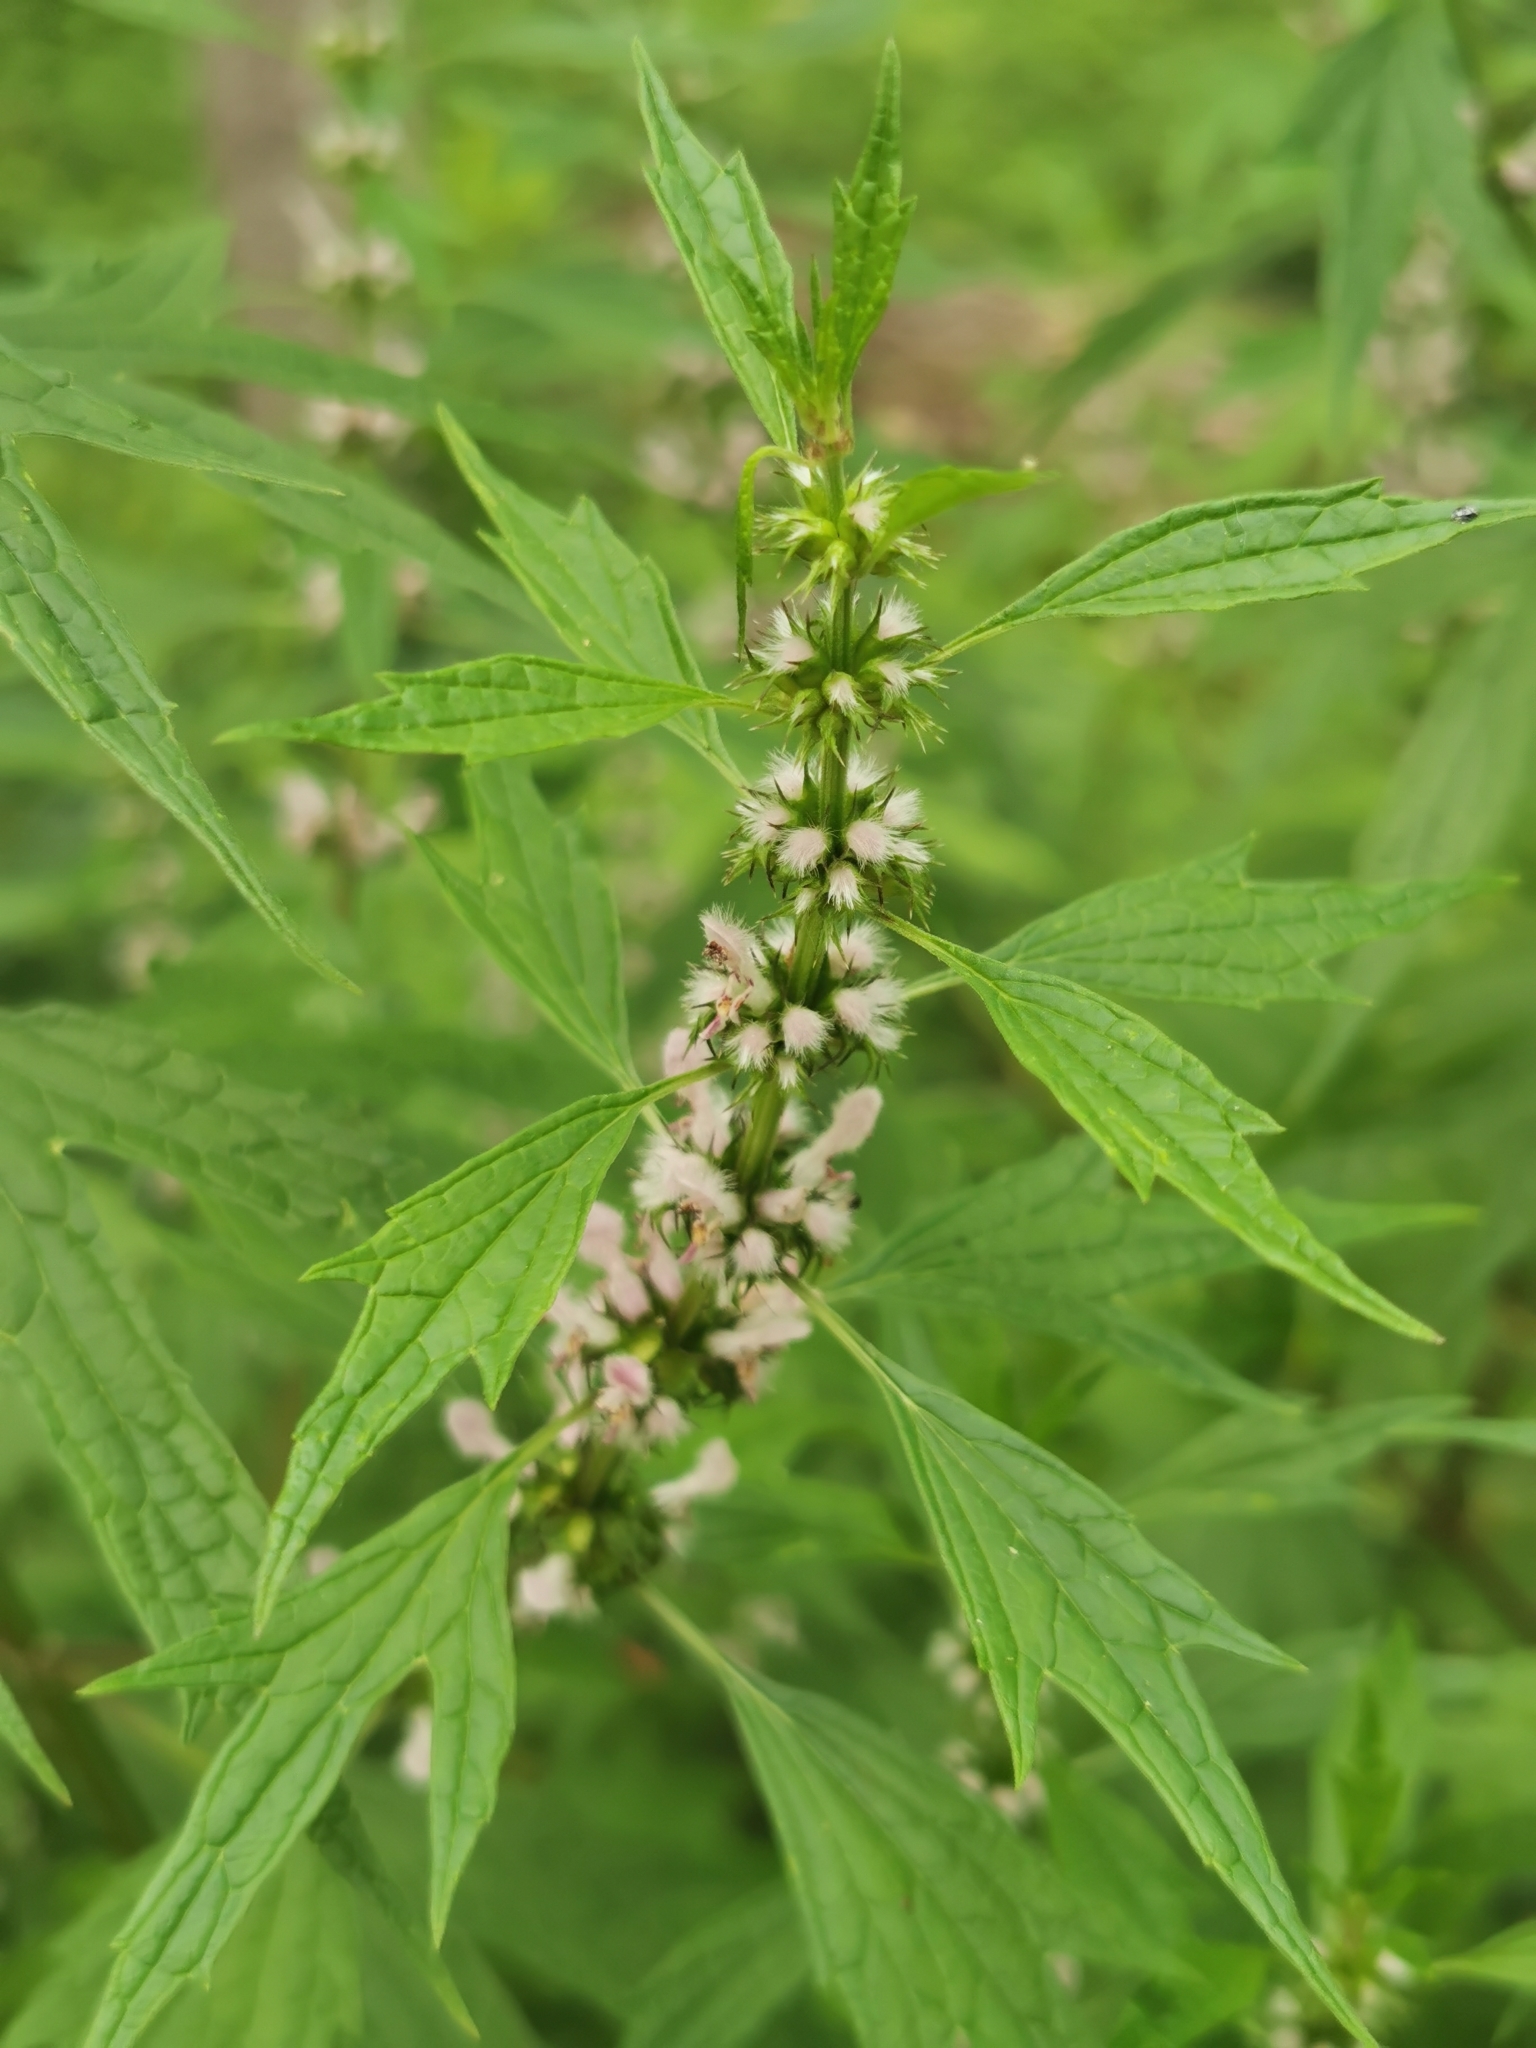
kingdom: Plantae
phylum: Tracheophyta
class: Magnoliopsida
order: Lamiales
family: Lamiaceae
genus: Leonurus
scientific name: Leonurus cardiaca
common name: Motherwort
